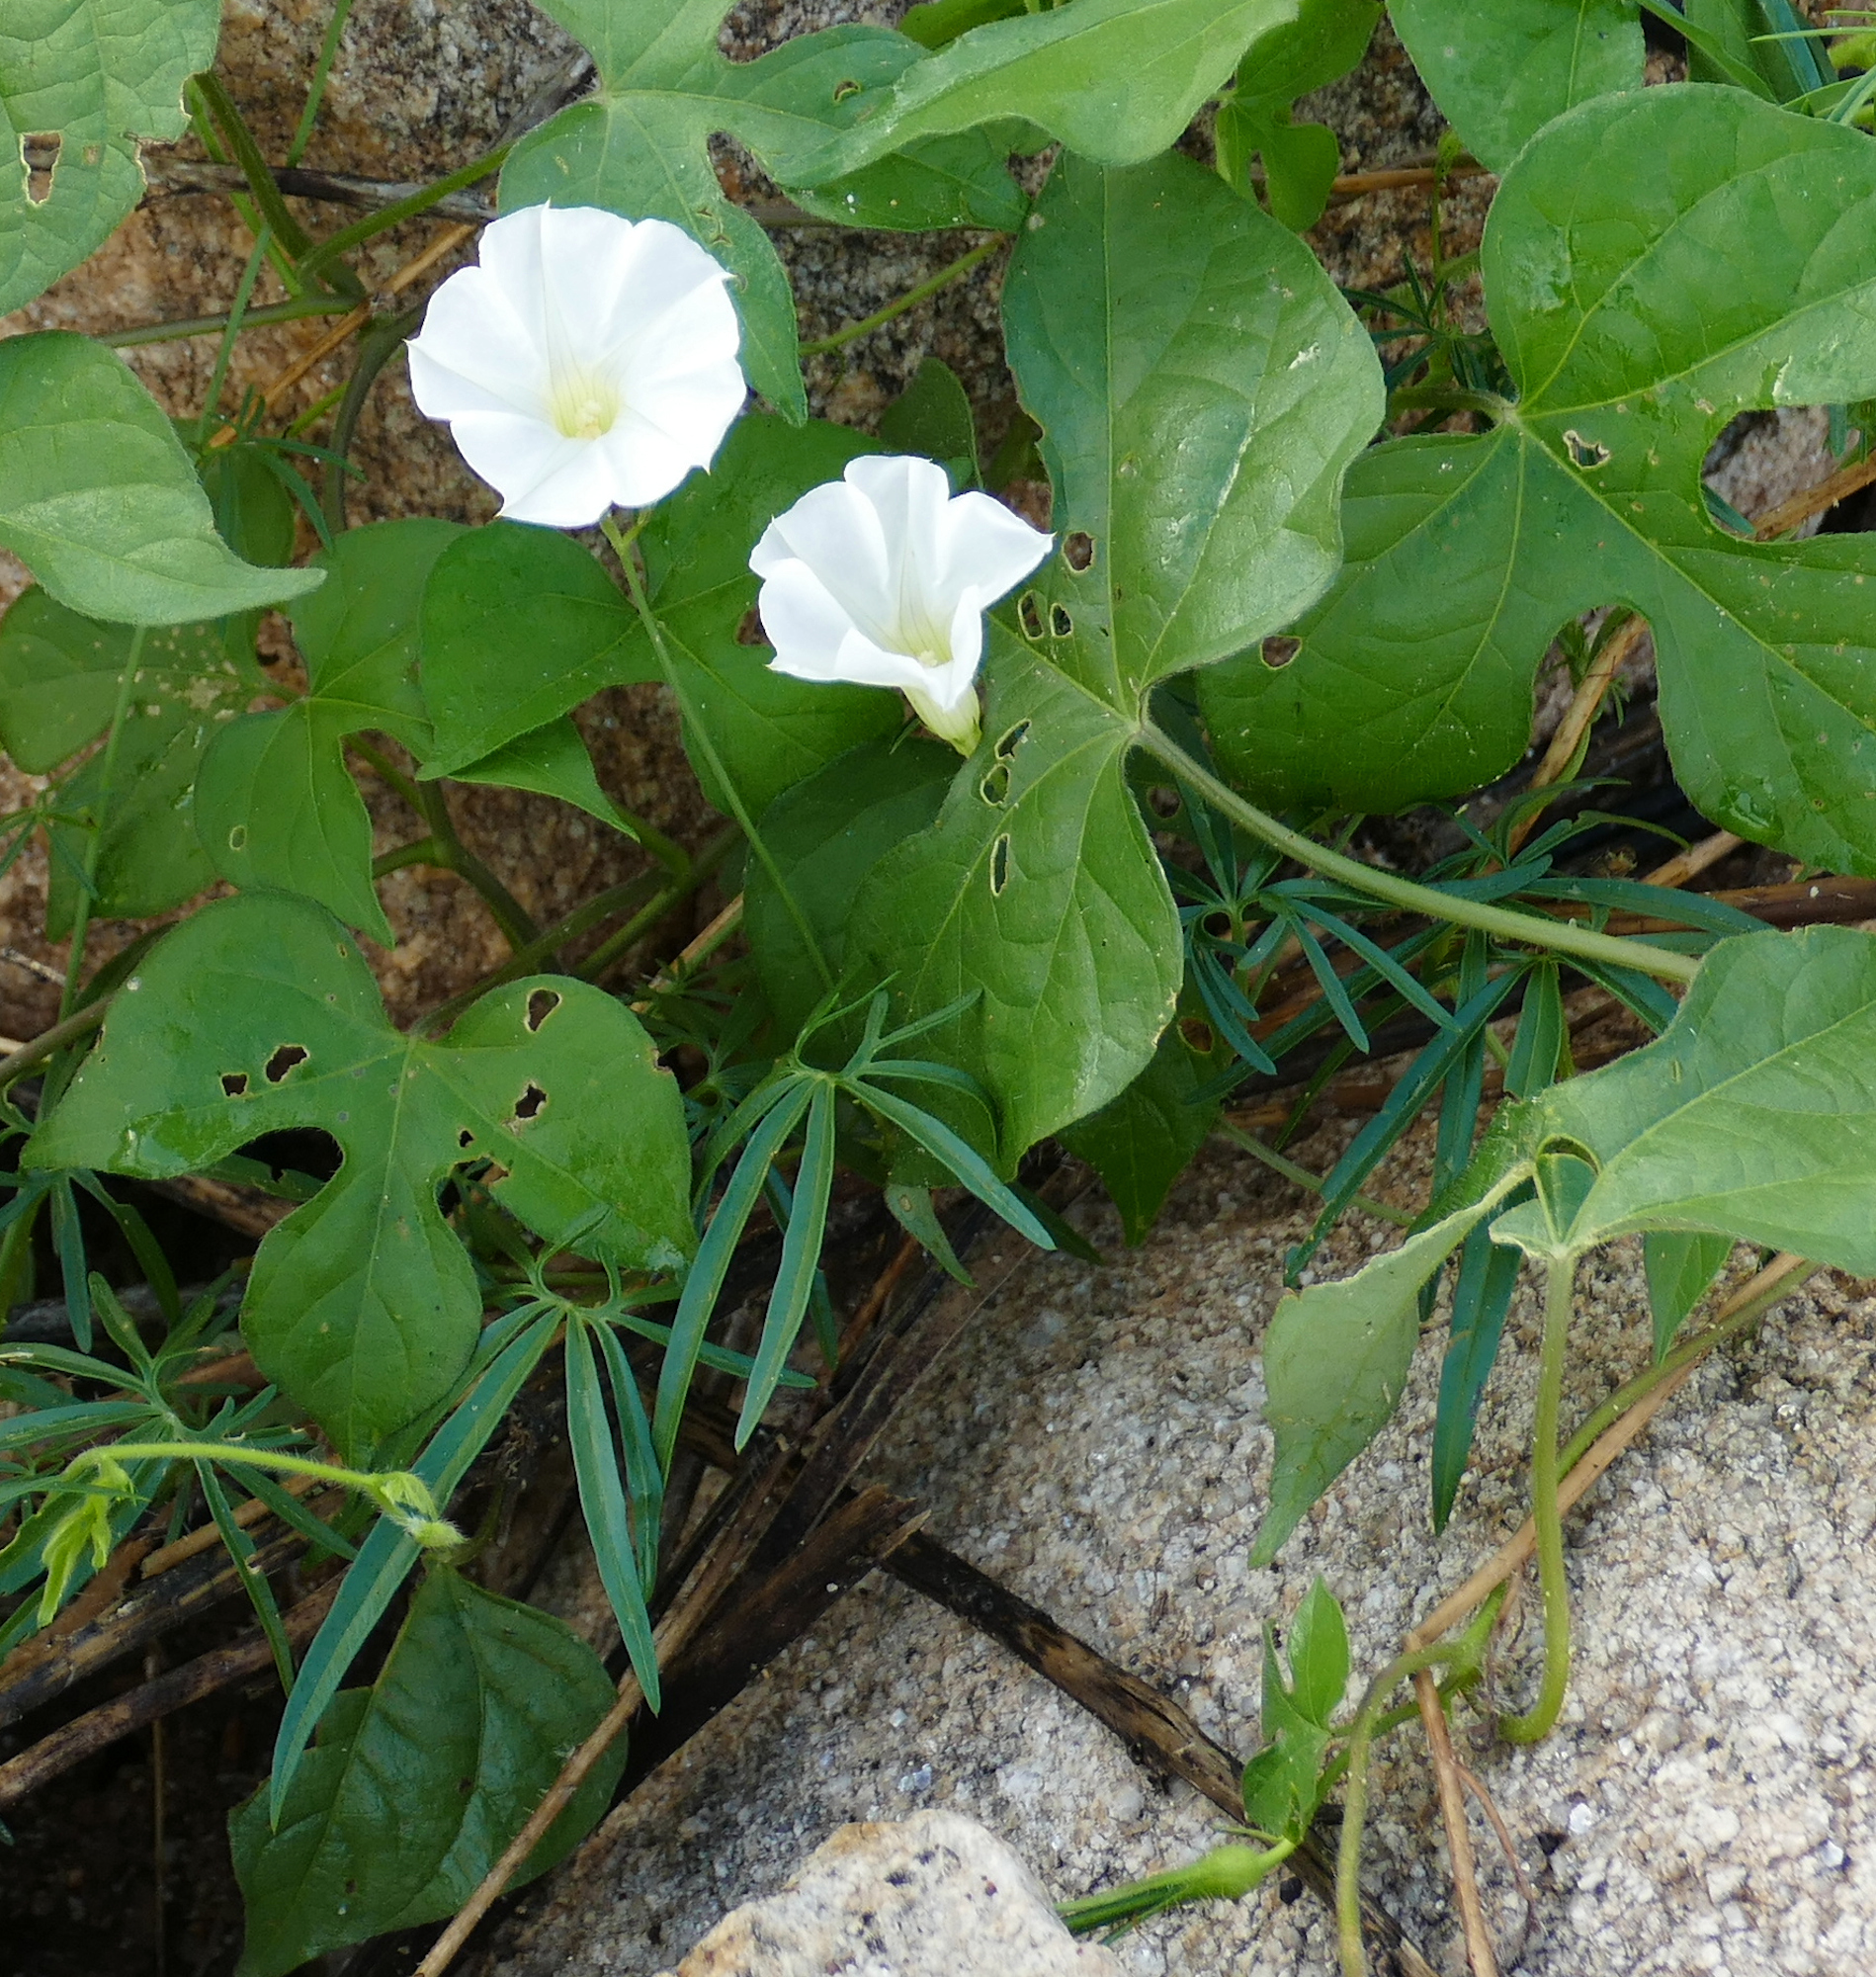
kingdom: Plantae
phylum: Tracheophyta
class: Magnoliopsida
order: Solanales
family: Convolvulaceae
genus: Ipomoea
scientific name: Ipomoea ternifolia
